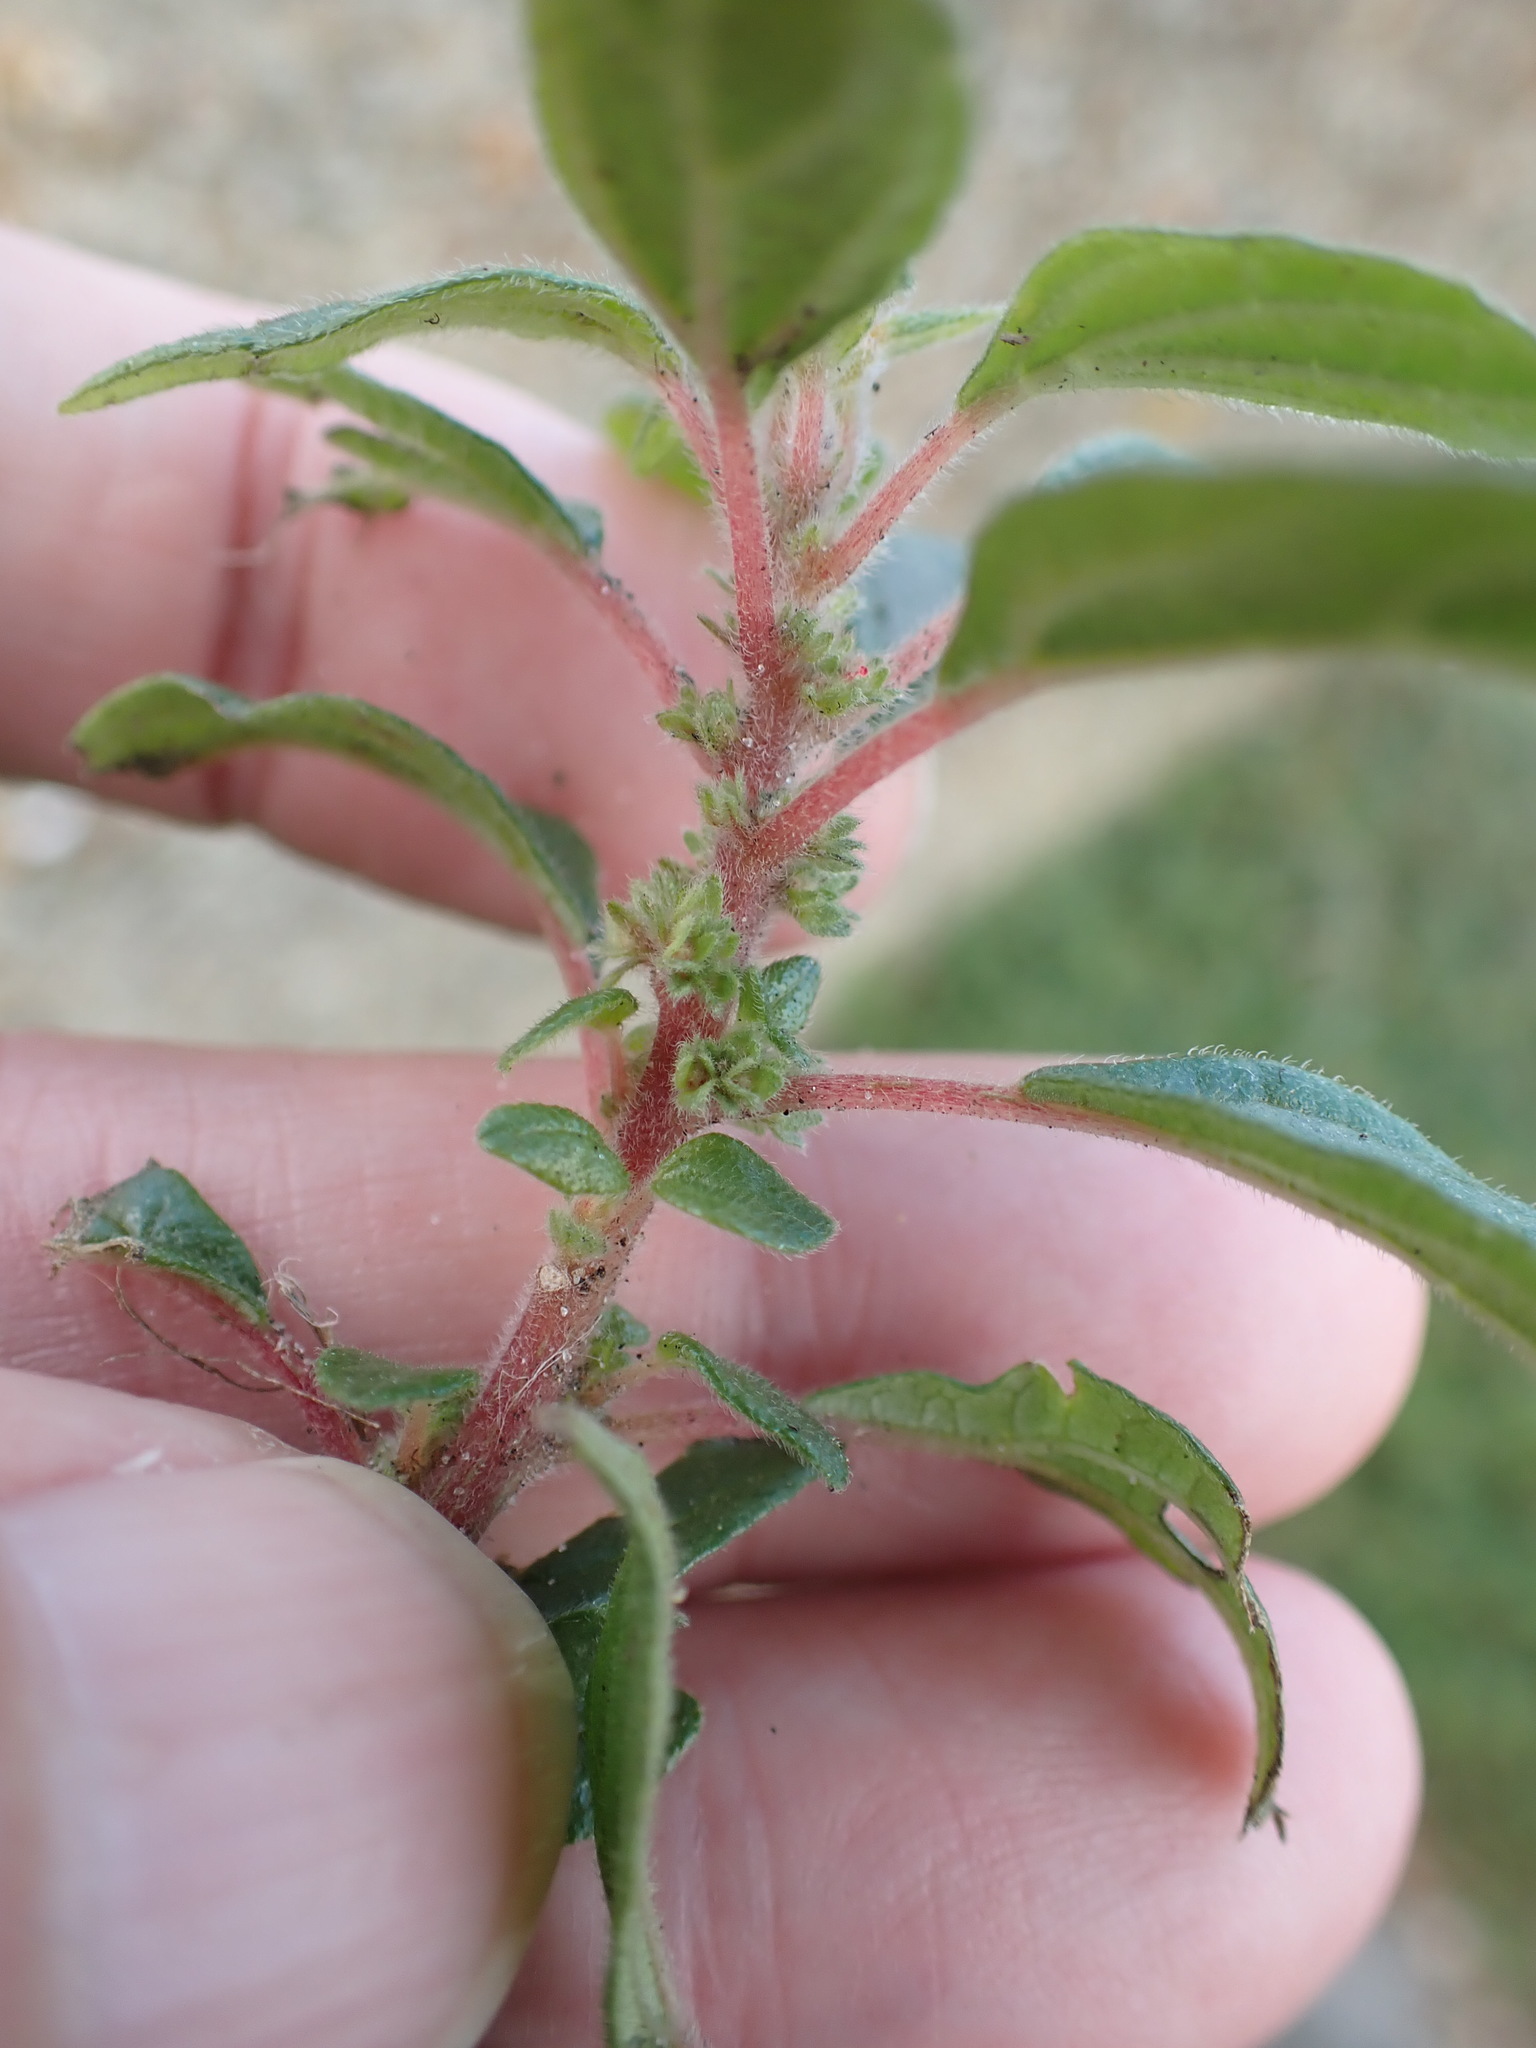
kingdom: Plantae
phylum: Tracheophyta
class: Magnoliopsida
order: Rosales
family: Urticaceae
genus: Parietaria
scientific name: Parietaria judaica
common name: Pellitory-of-the-wall
